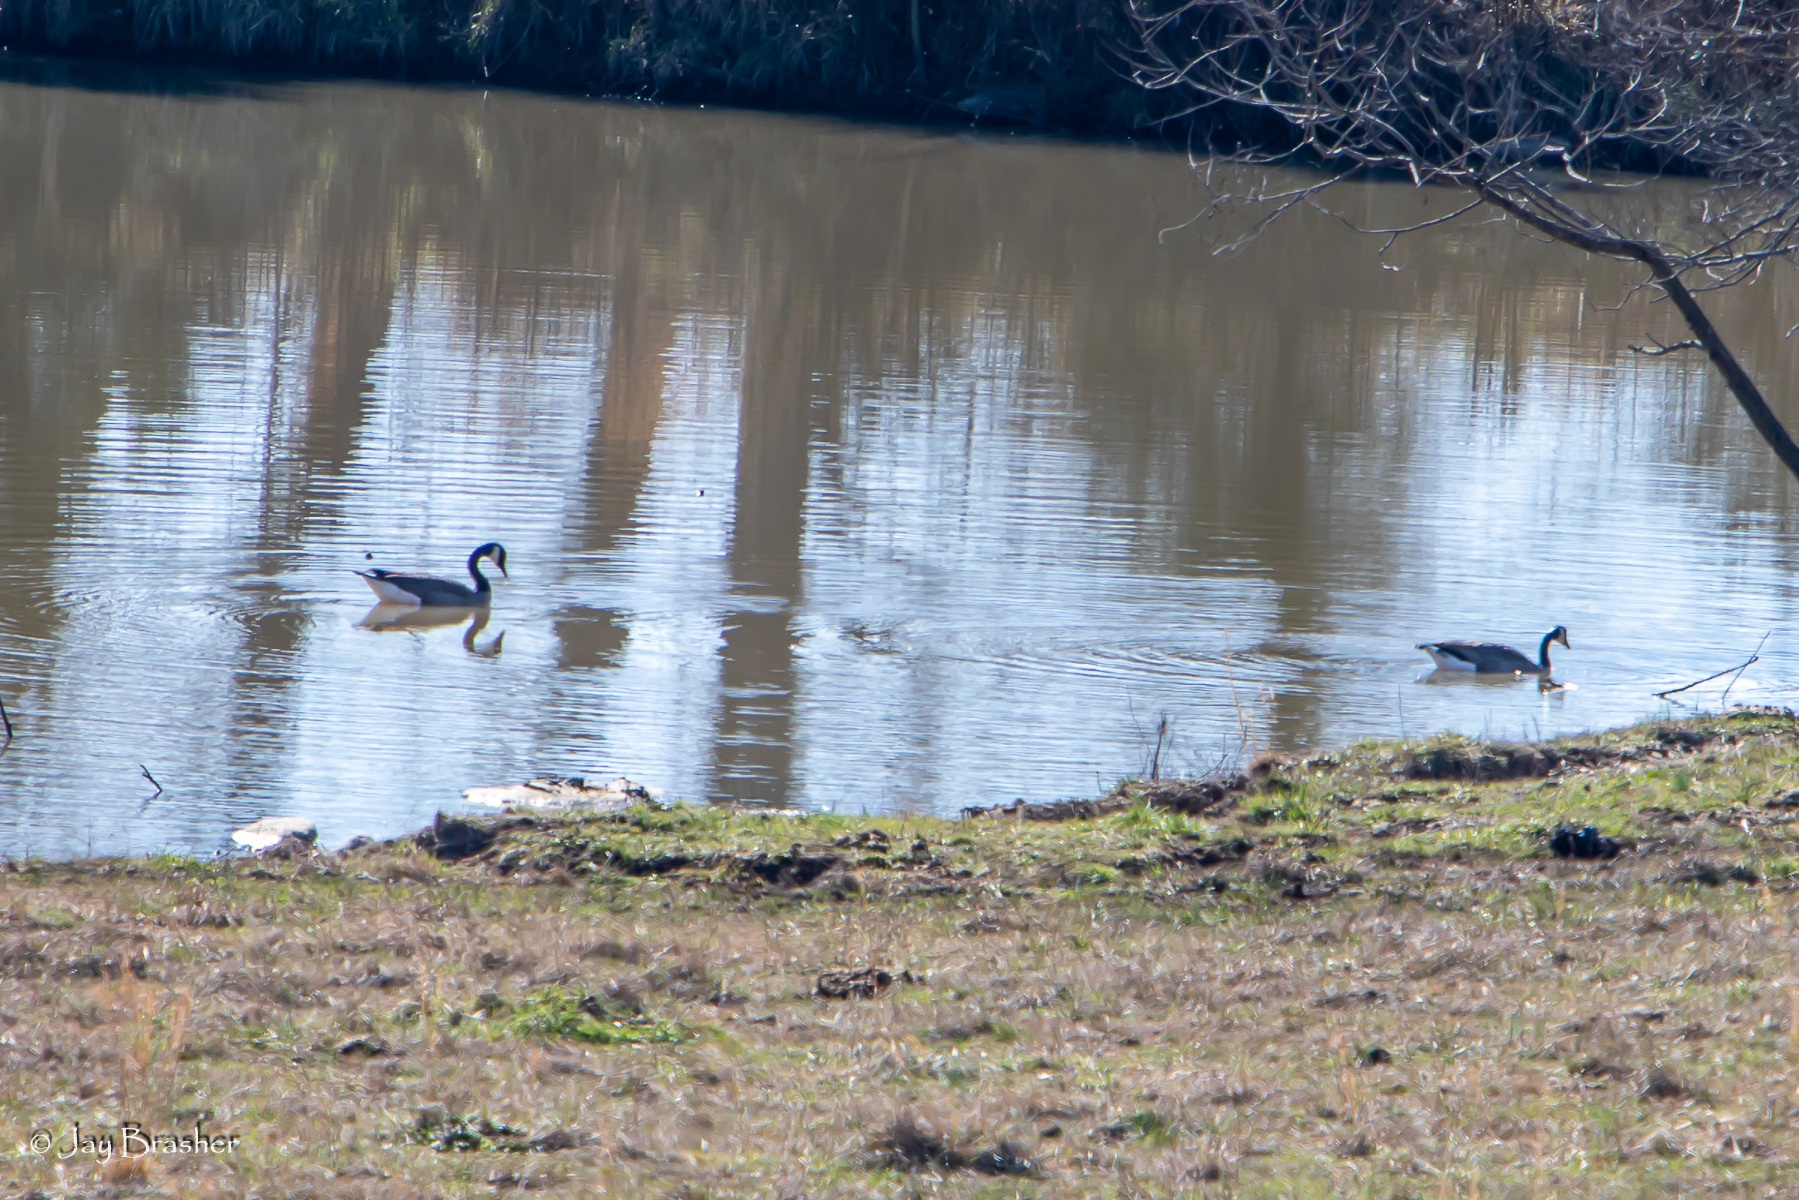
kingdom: Animalia
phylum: Chordata
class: Aves
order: Anseriformes
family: Anatidae
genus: Branta
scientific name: Branta canadensis
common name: Canada goose
